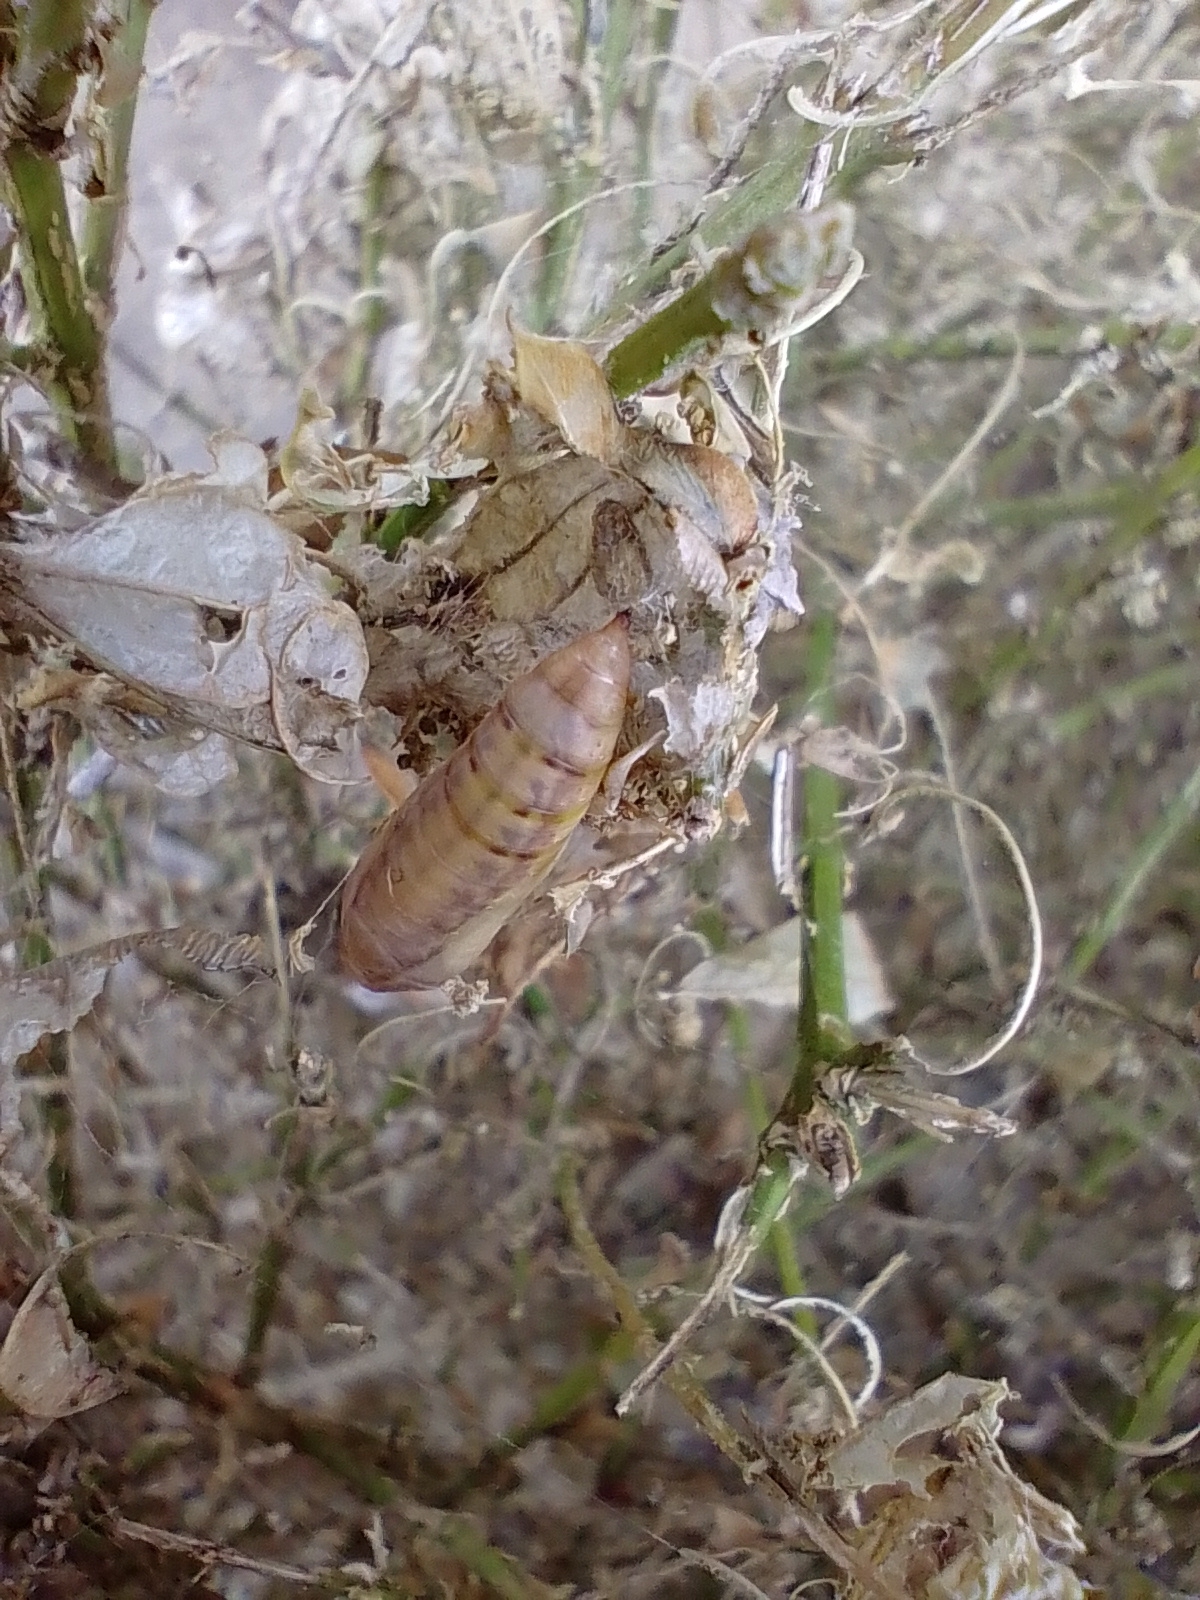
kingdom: Animalia
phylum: Arthropoda
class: Insecta
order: Lepidoptera
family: Crambidae
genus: Cydalima
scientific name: Cydalima perspectalis
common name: Box tree moth
